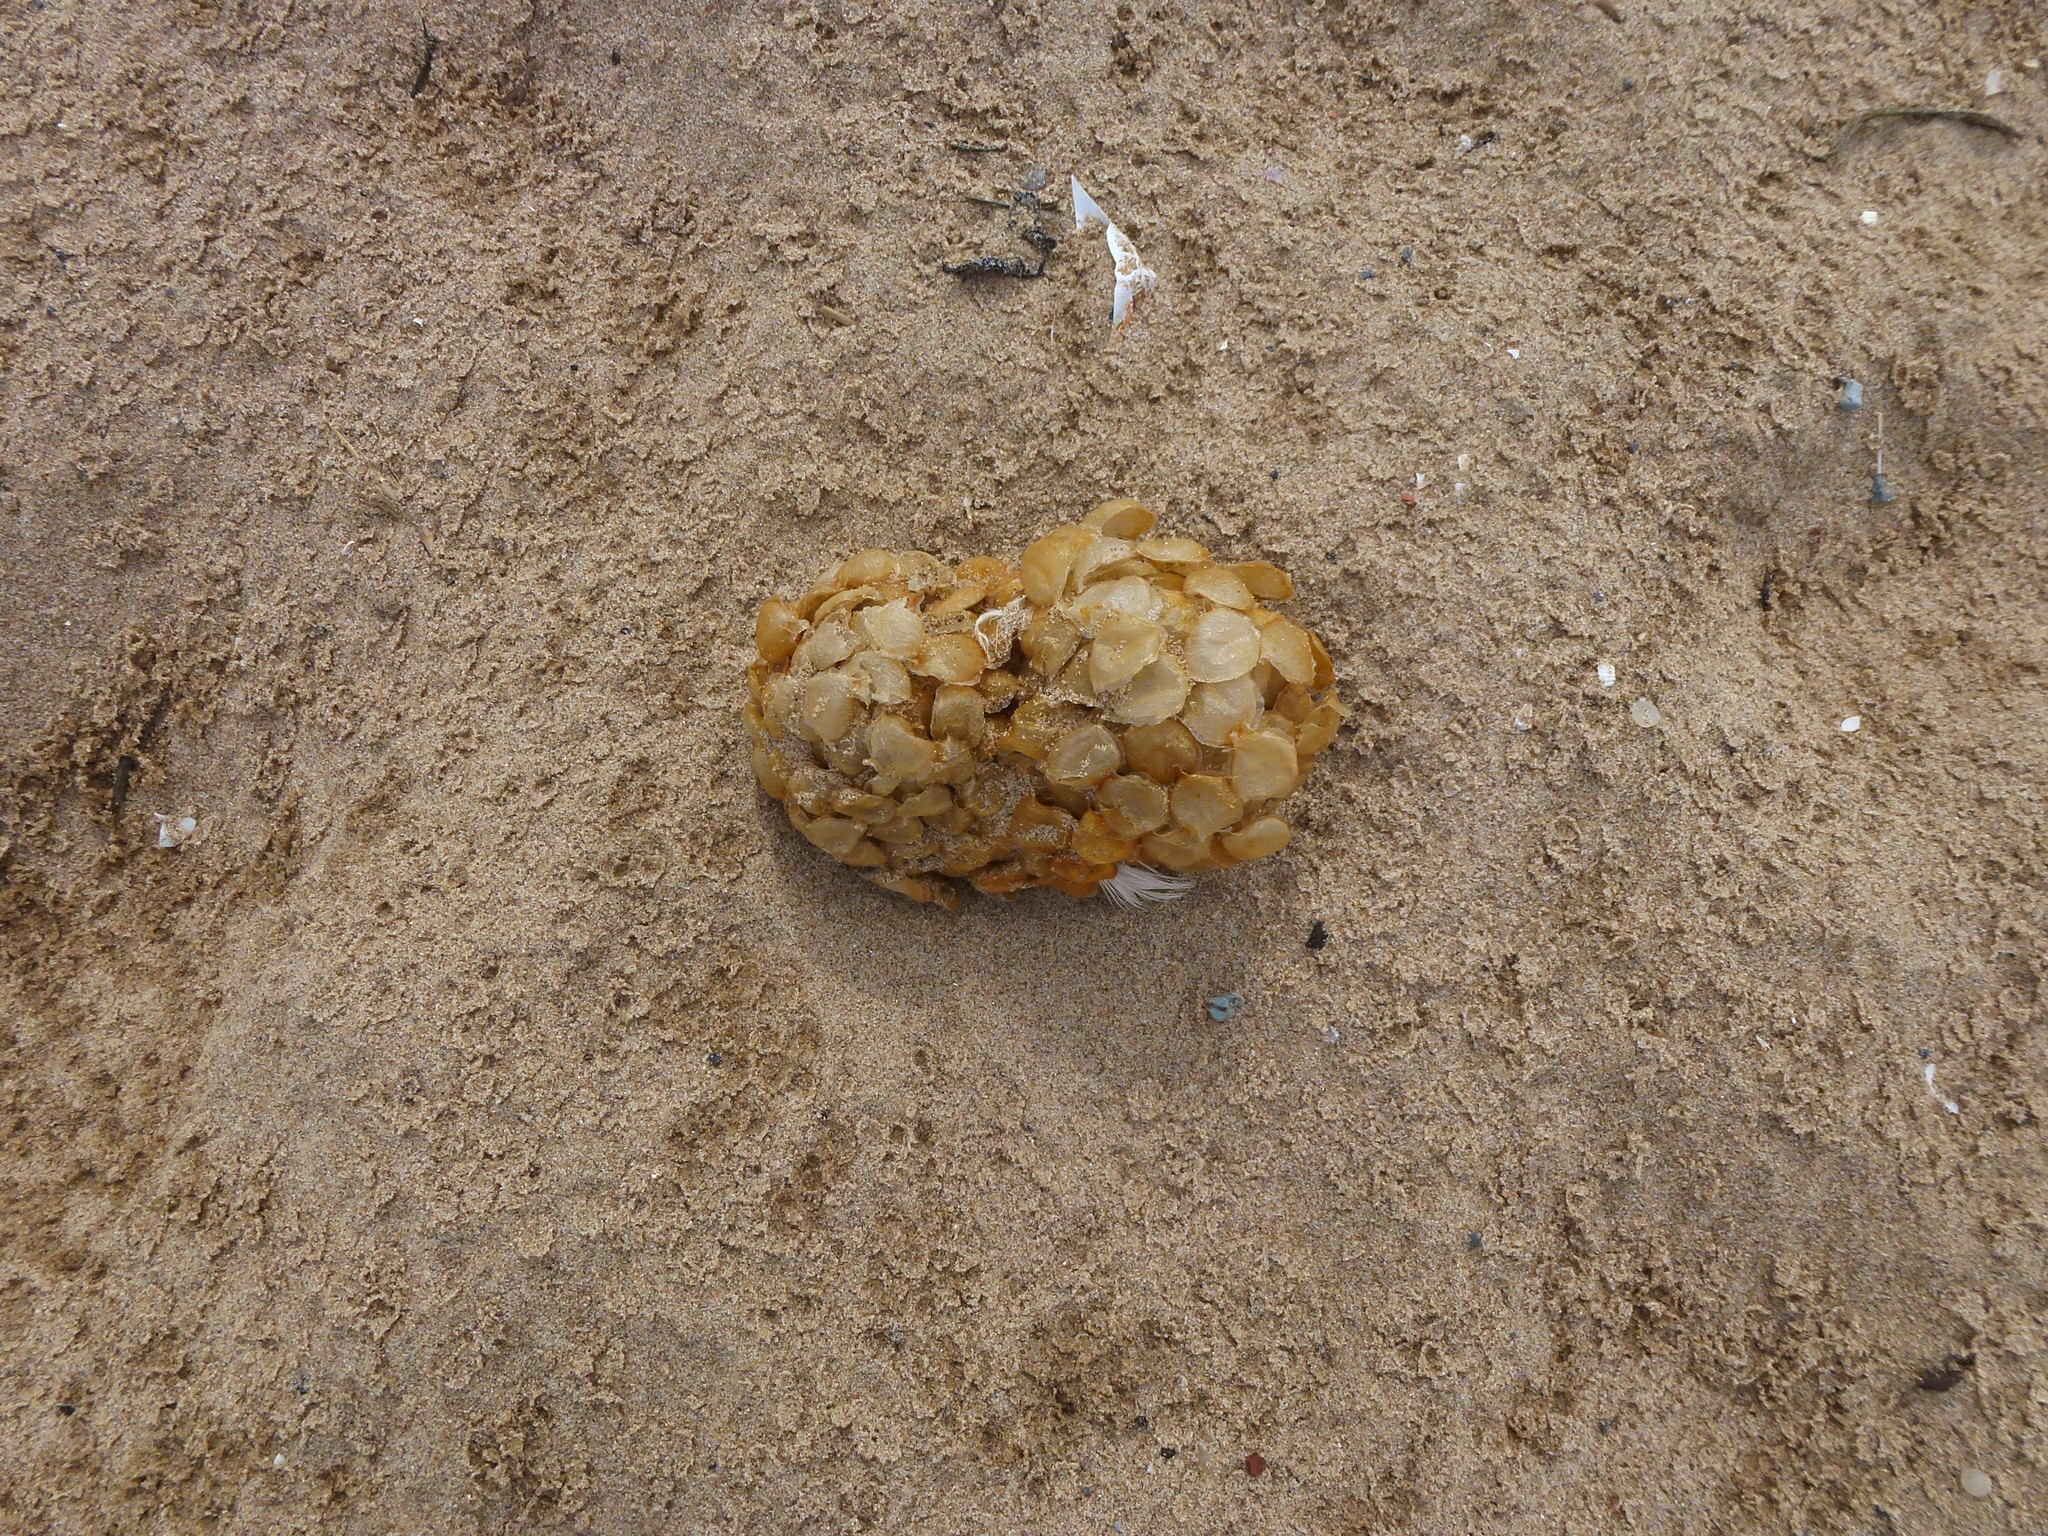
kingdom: Animalia
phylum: Mollusca
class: Gastropoda
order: Neogastropoda
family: Buccinidae
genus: Buccinum
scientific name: Buccinum undatum
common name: Common whelk
